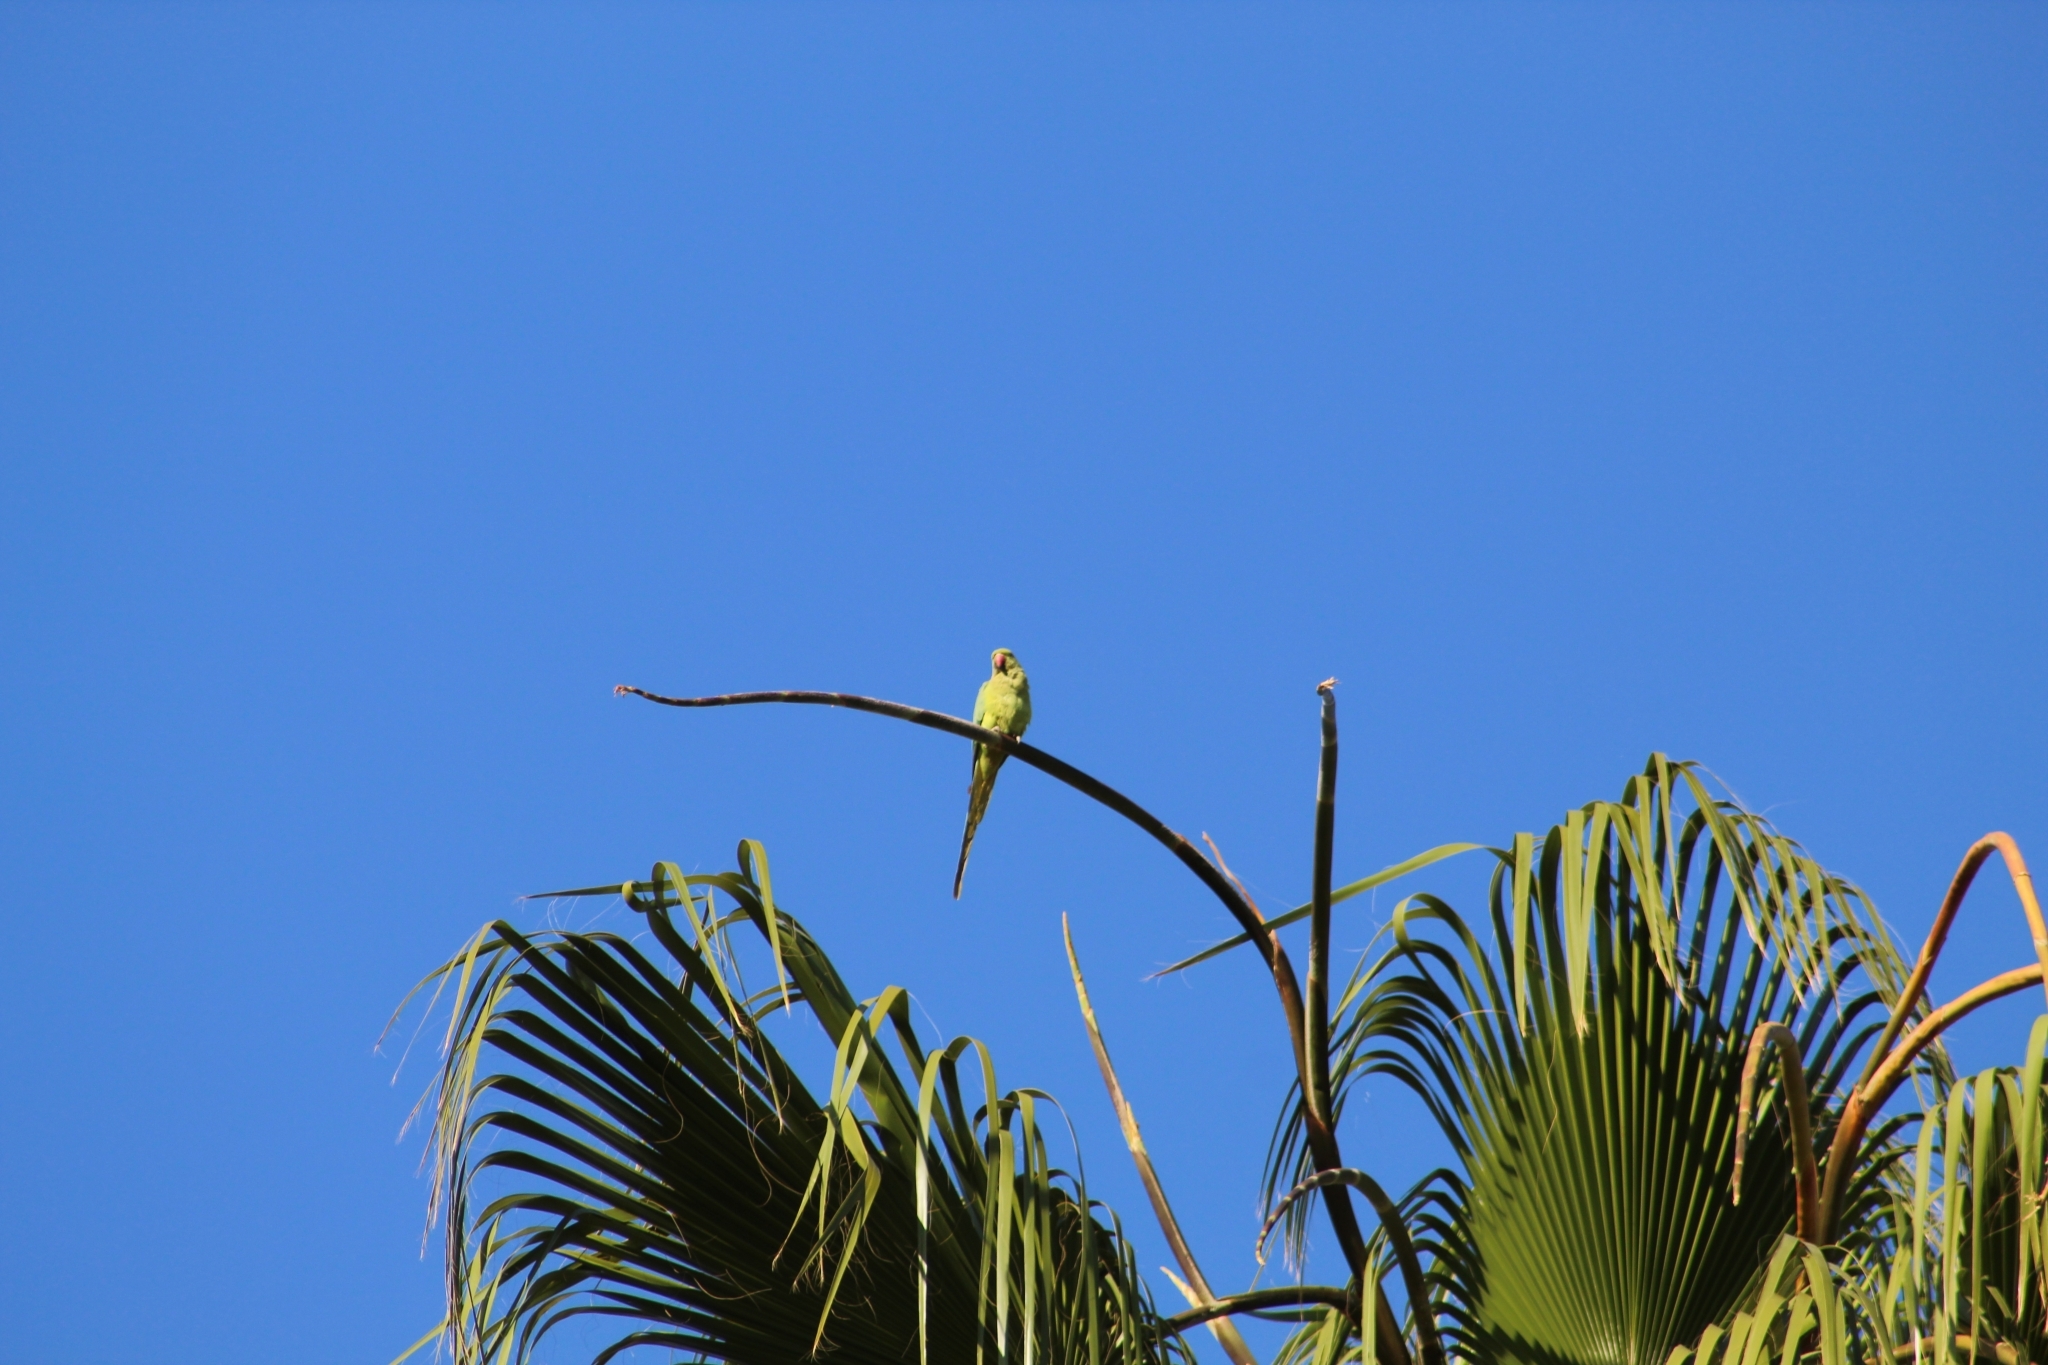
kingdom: Animalia
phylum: Chordata
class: Aves
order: Psittaciformes
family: Psittacidae
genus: Psittacula
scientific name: Psittacula krameri
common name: Rose-ringed parakeet
